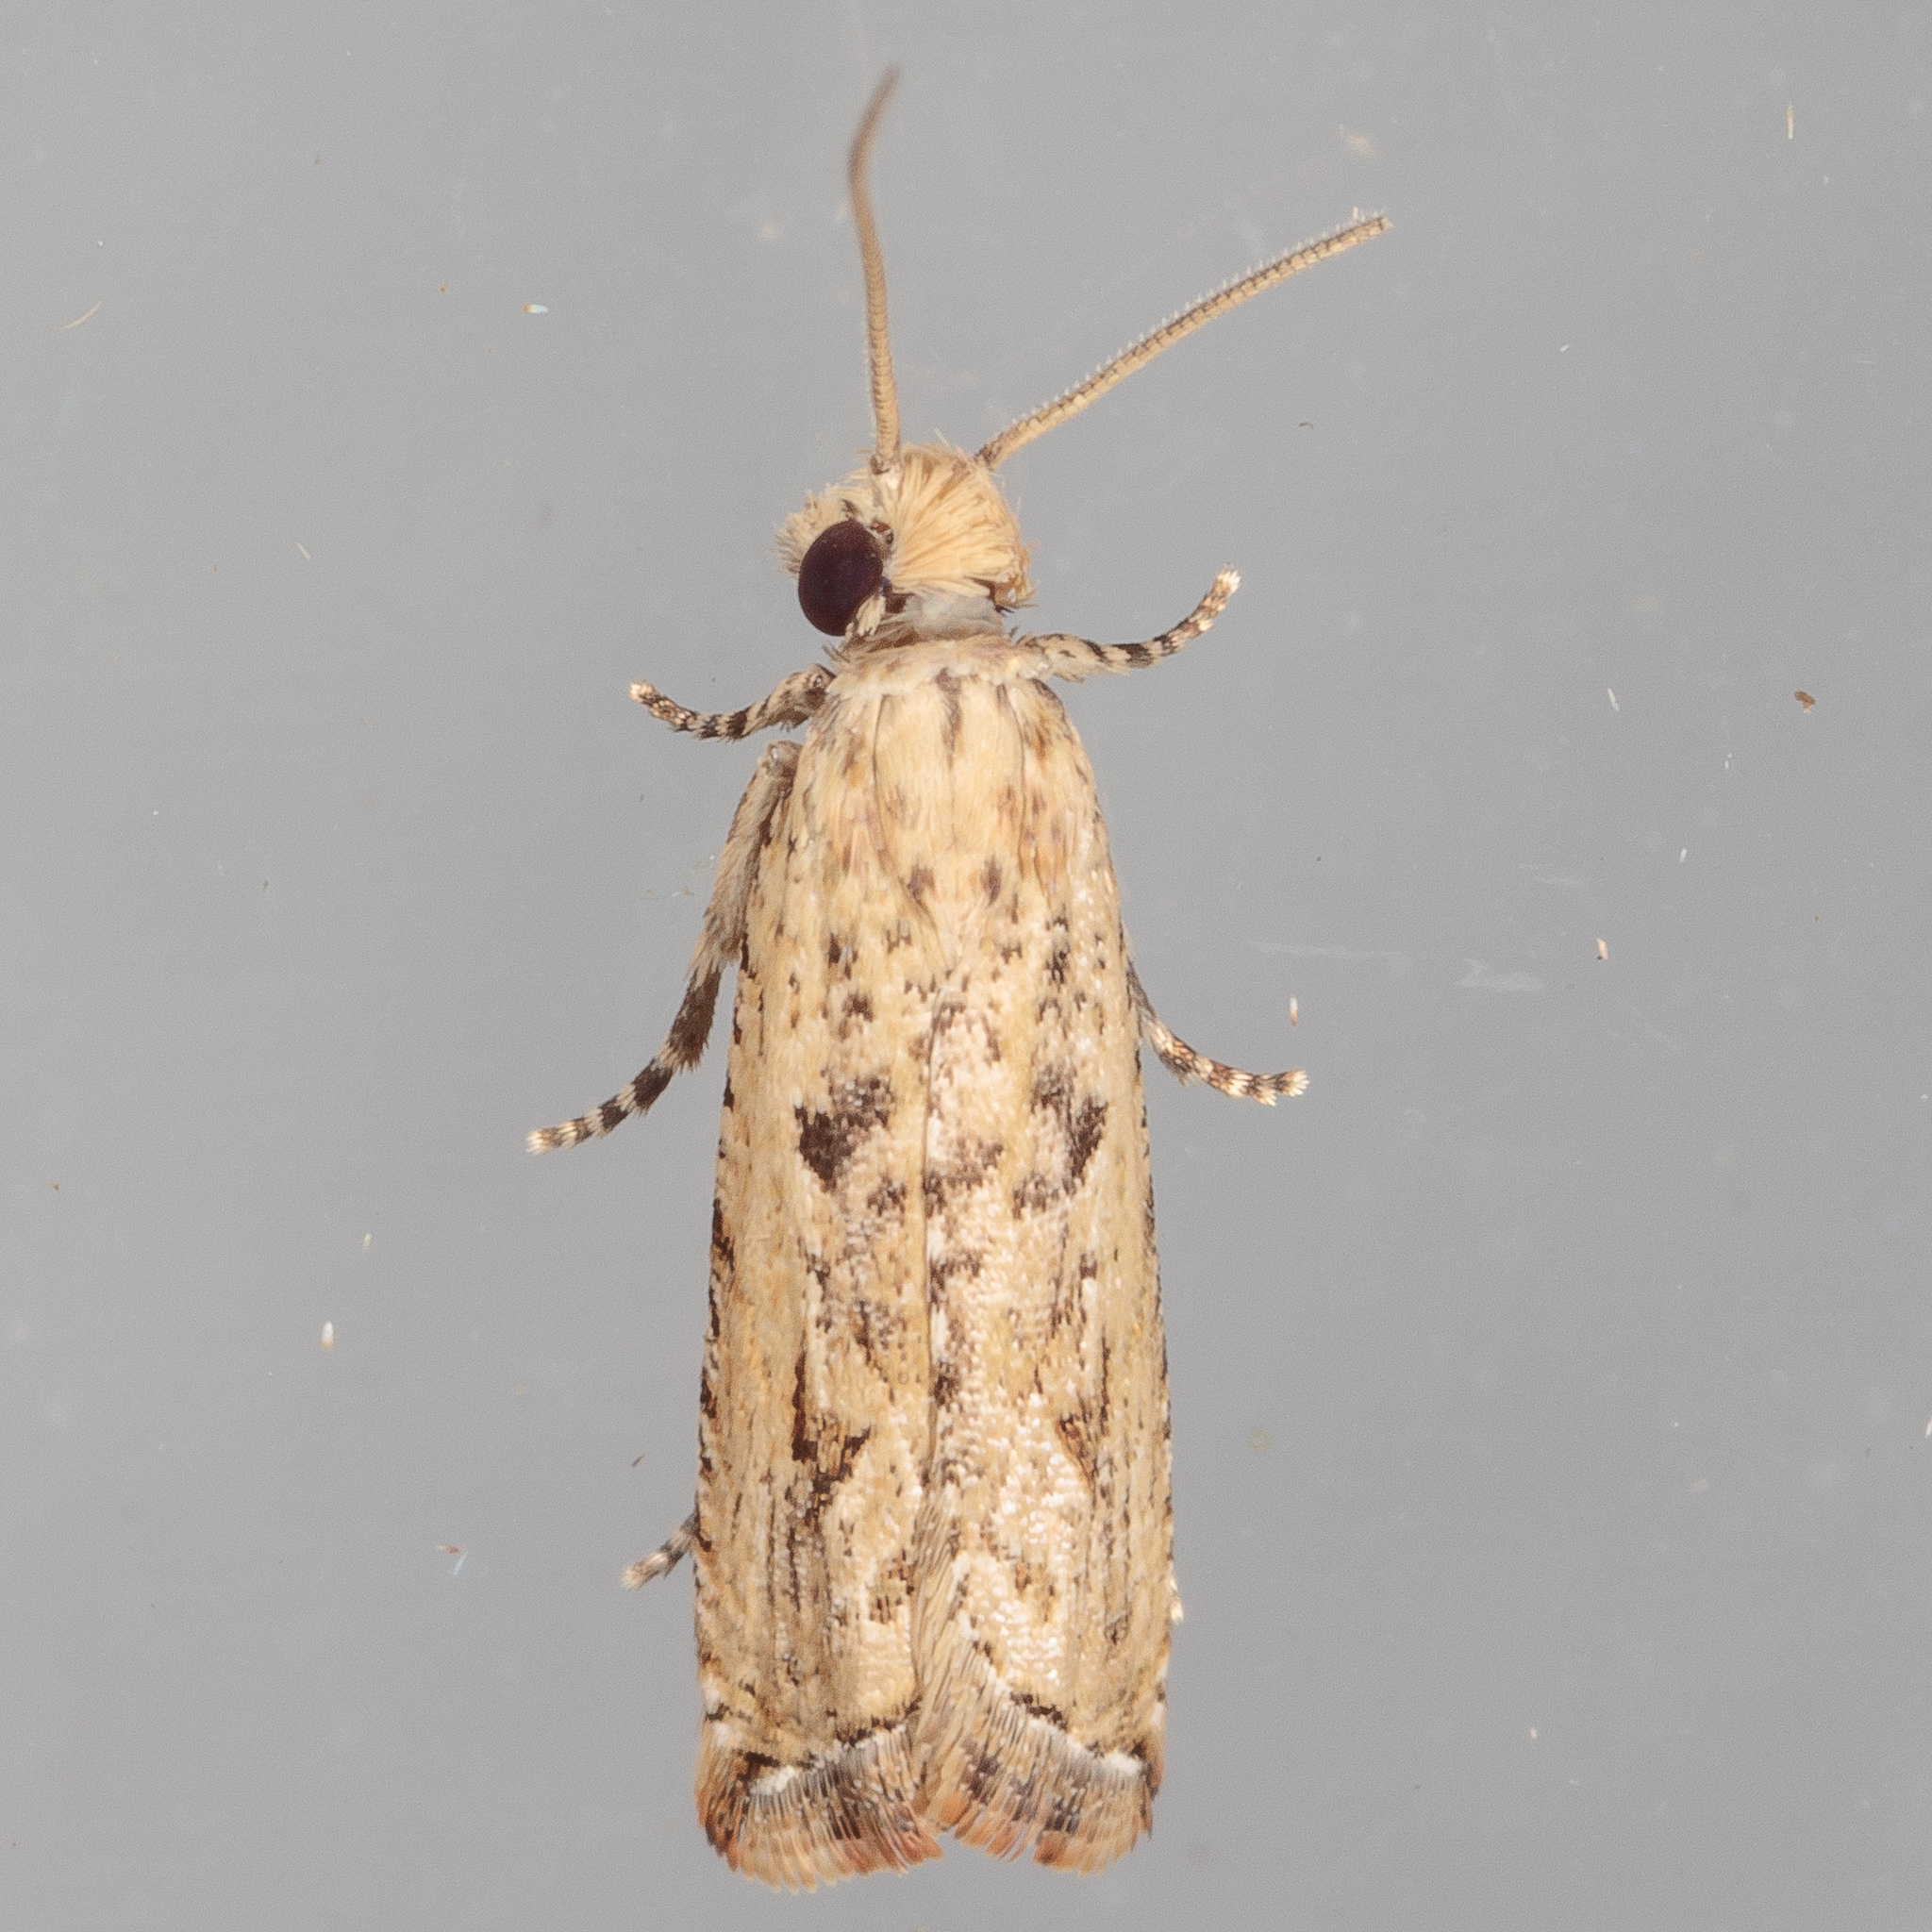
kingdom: Animalia
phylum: Arthropoda
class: Insecta
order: Lepidoptera
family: Tortricidae
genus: Bactra
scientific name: Bactra verutana
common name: Javelin moth
